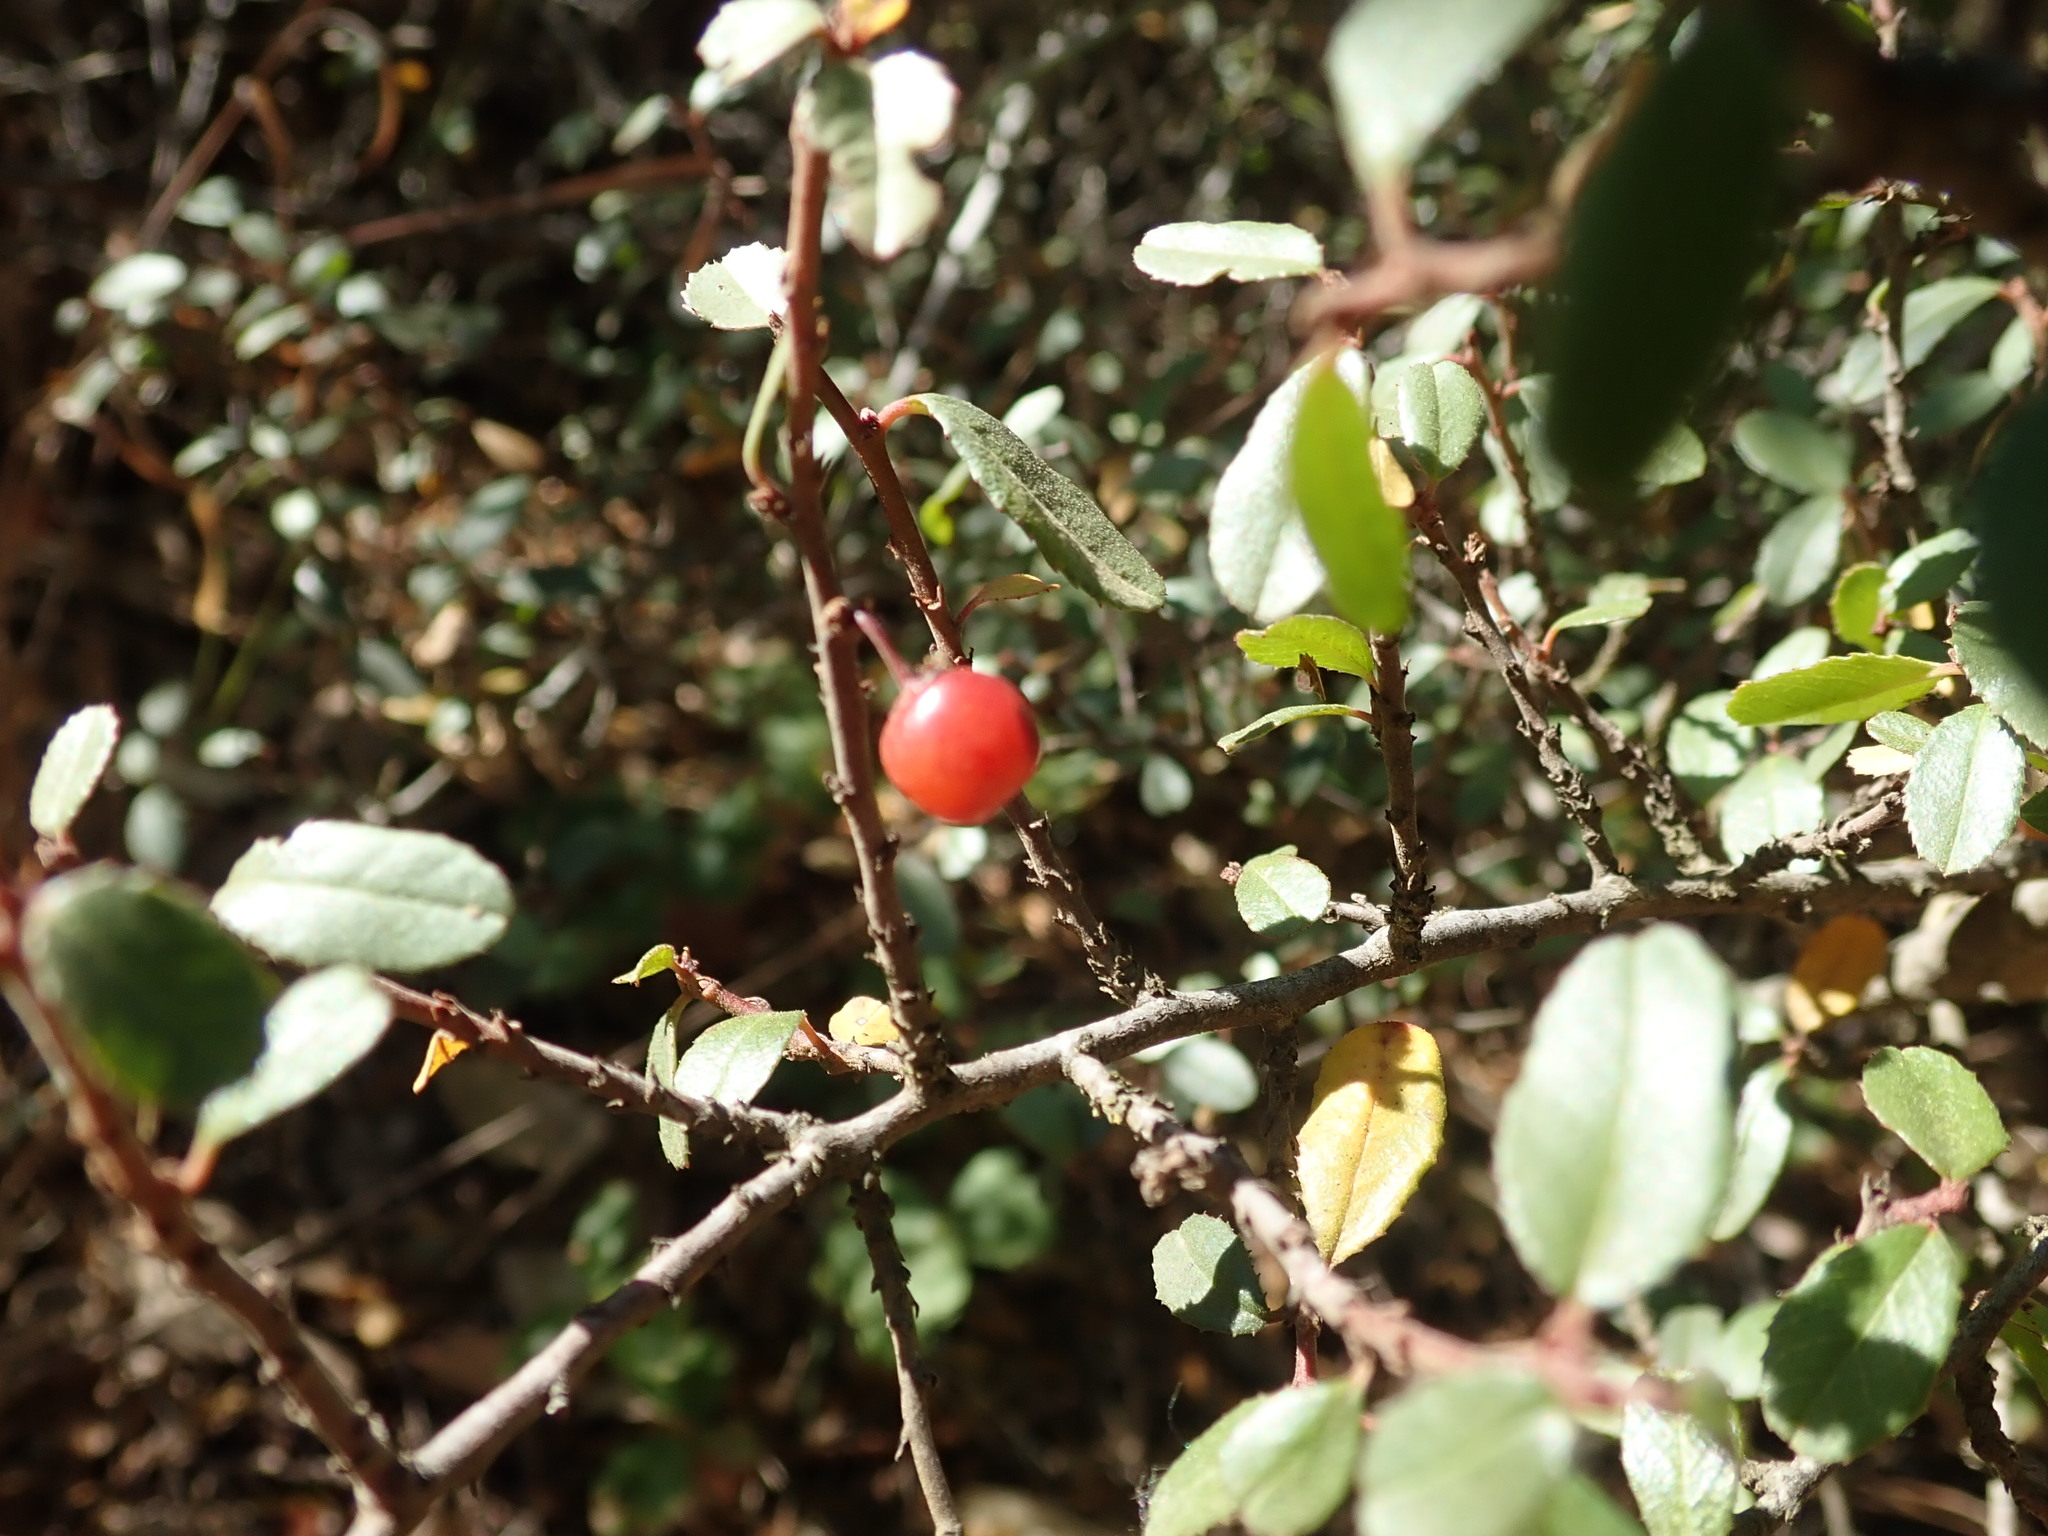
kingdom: Plantae
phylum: Tracheophyta
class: Magnoliopsida
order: Rosales
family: Rhamnaceae
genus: Endotropis
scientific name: Endotropis crocea
